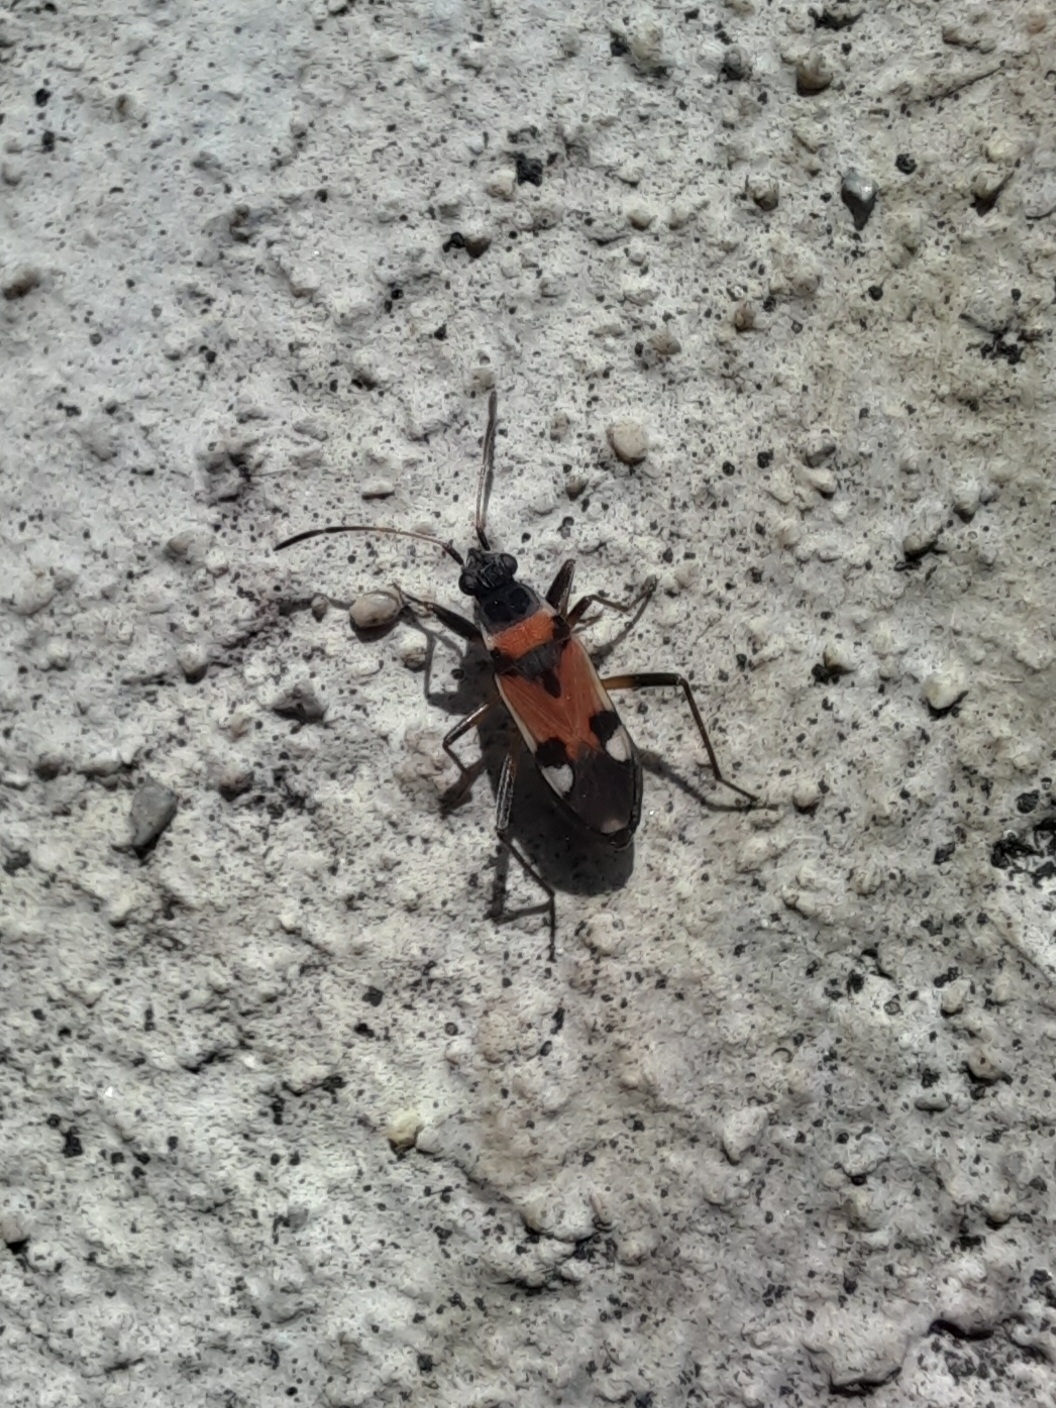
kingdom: Animalia
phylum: Arthropoda
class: Insecta
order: Hemiptera
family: Rhyparochromidae
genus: Beosus
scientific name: Beosus quadripunctatus
